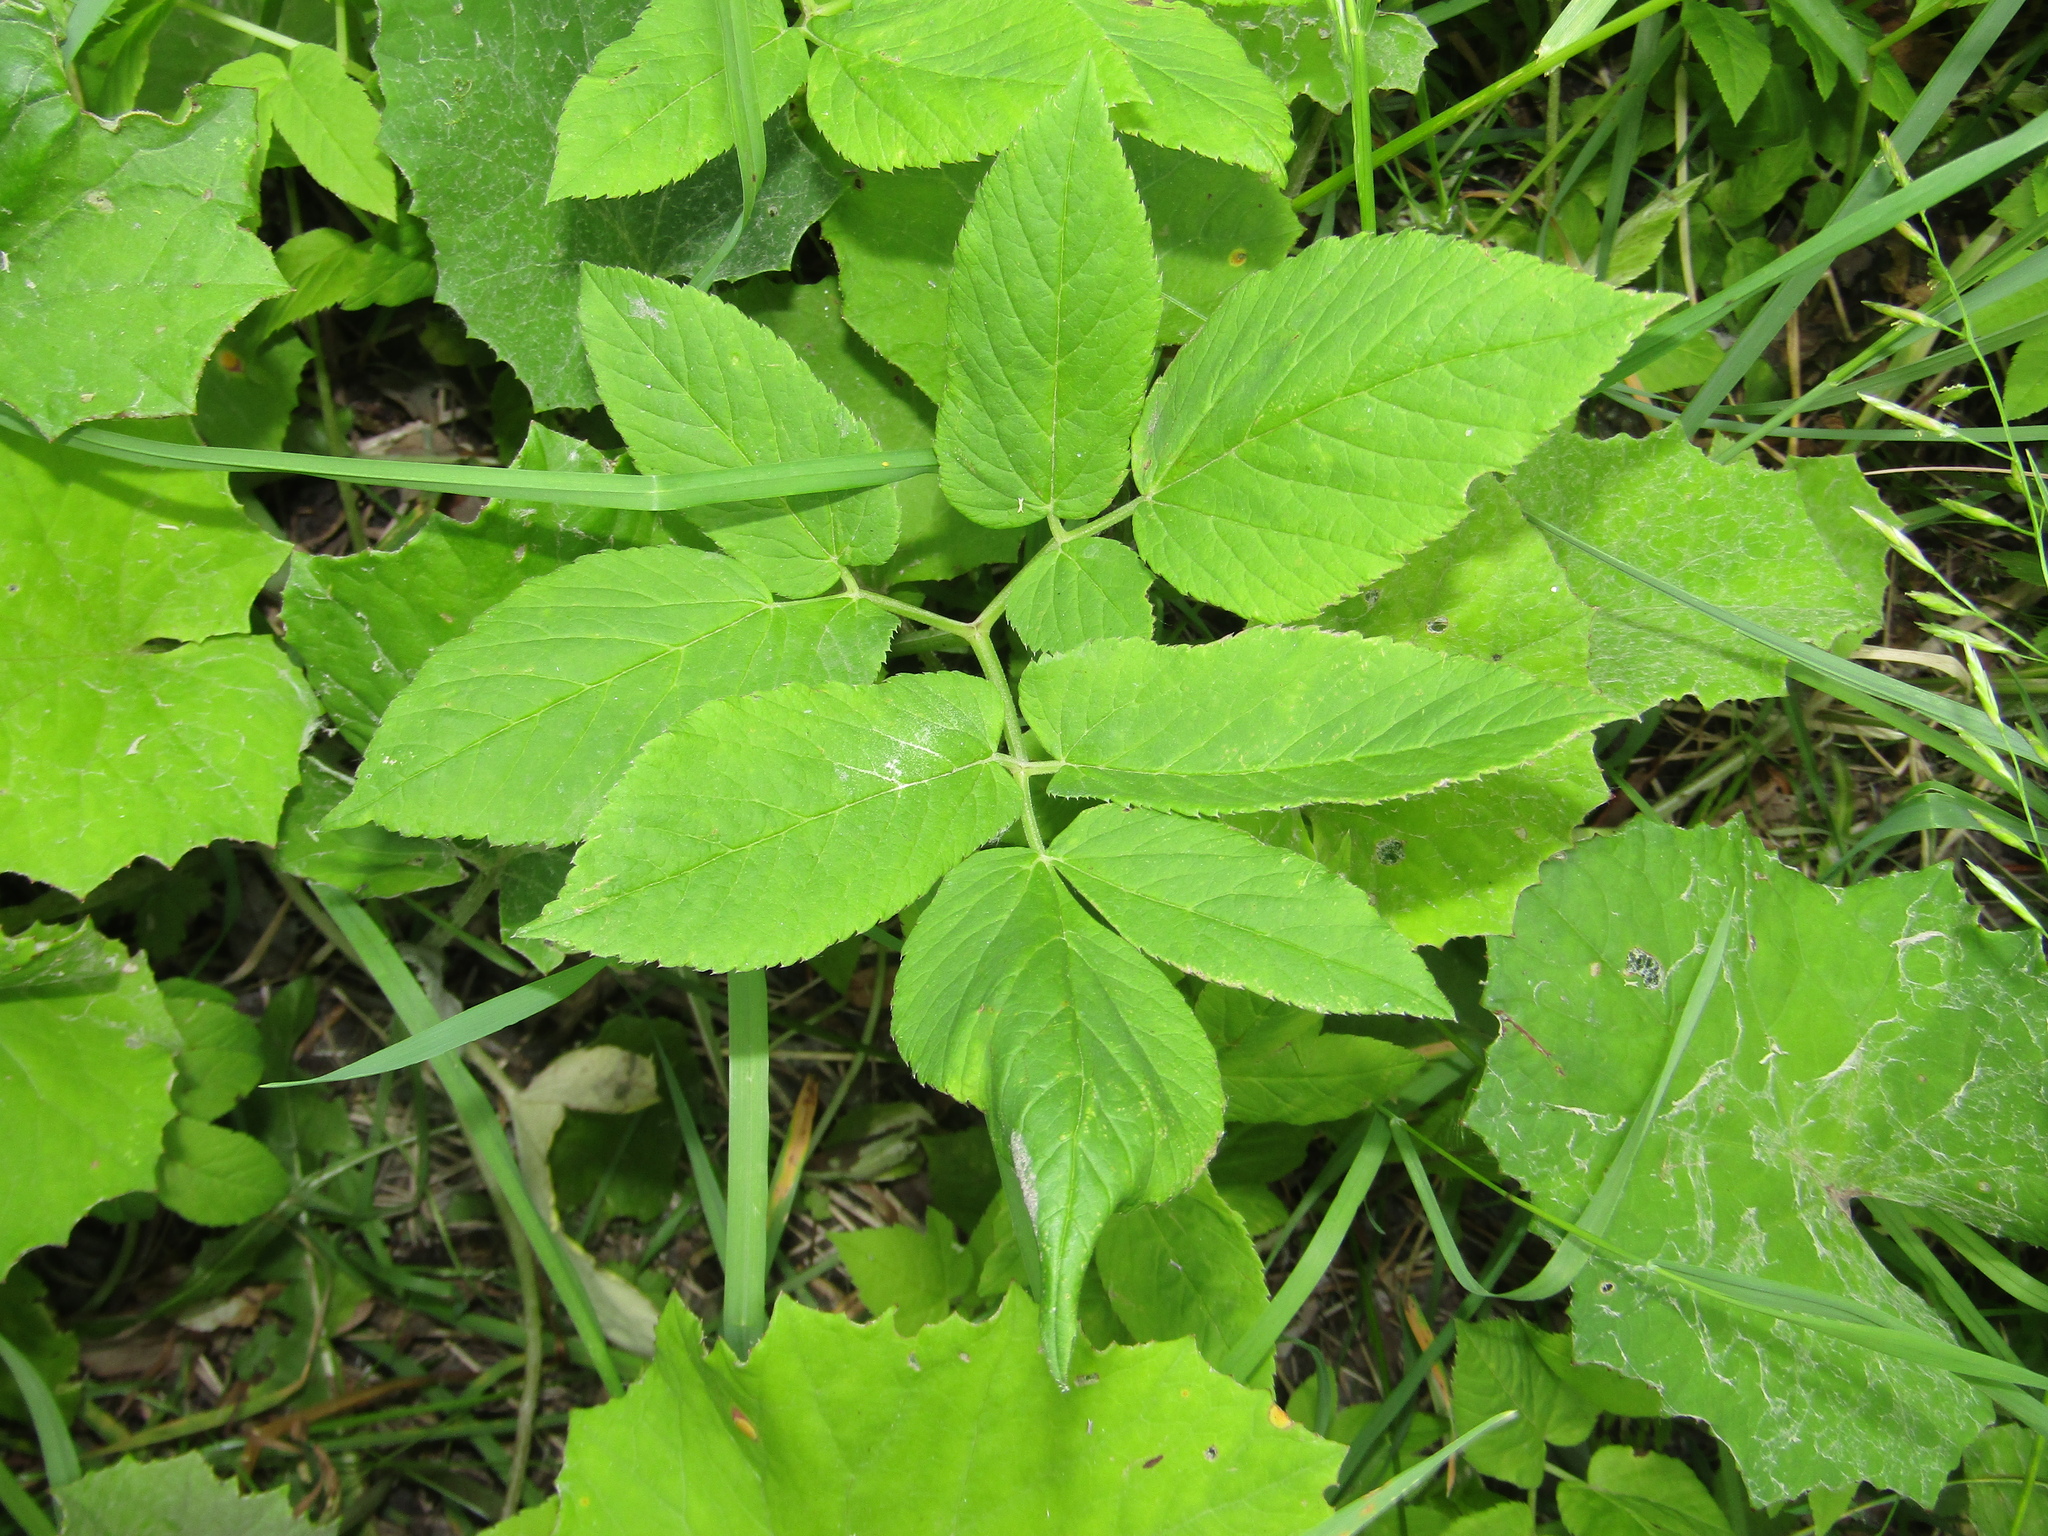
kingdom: Plantae
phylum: Tracheophyta
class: Magnoliopsida
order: Apiales
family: Apiaceae
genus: Aegopodium
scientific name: Aegopodium podagraria
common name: Ground-elder
